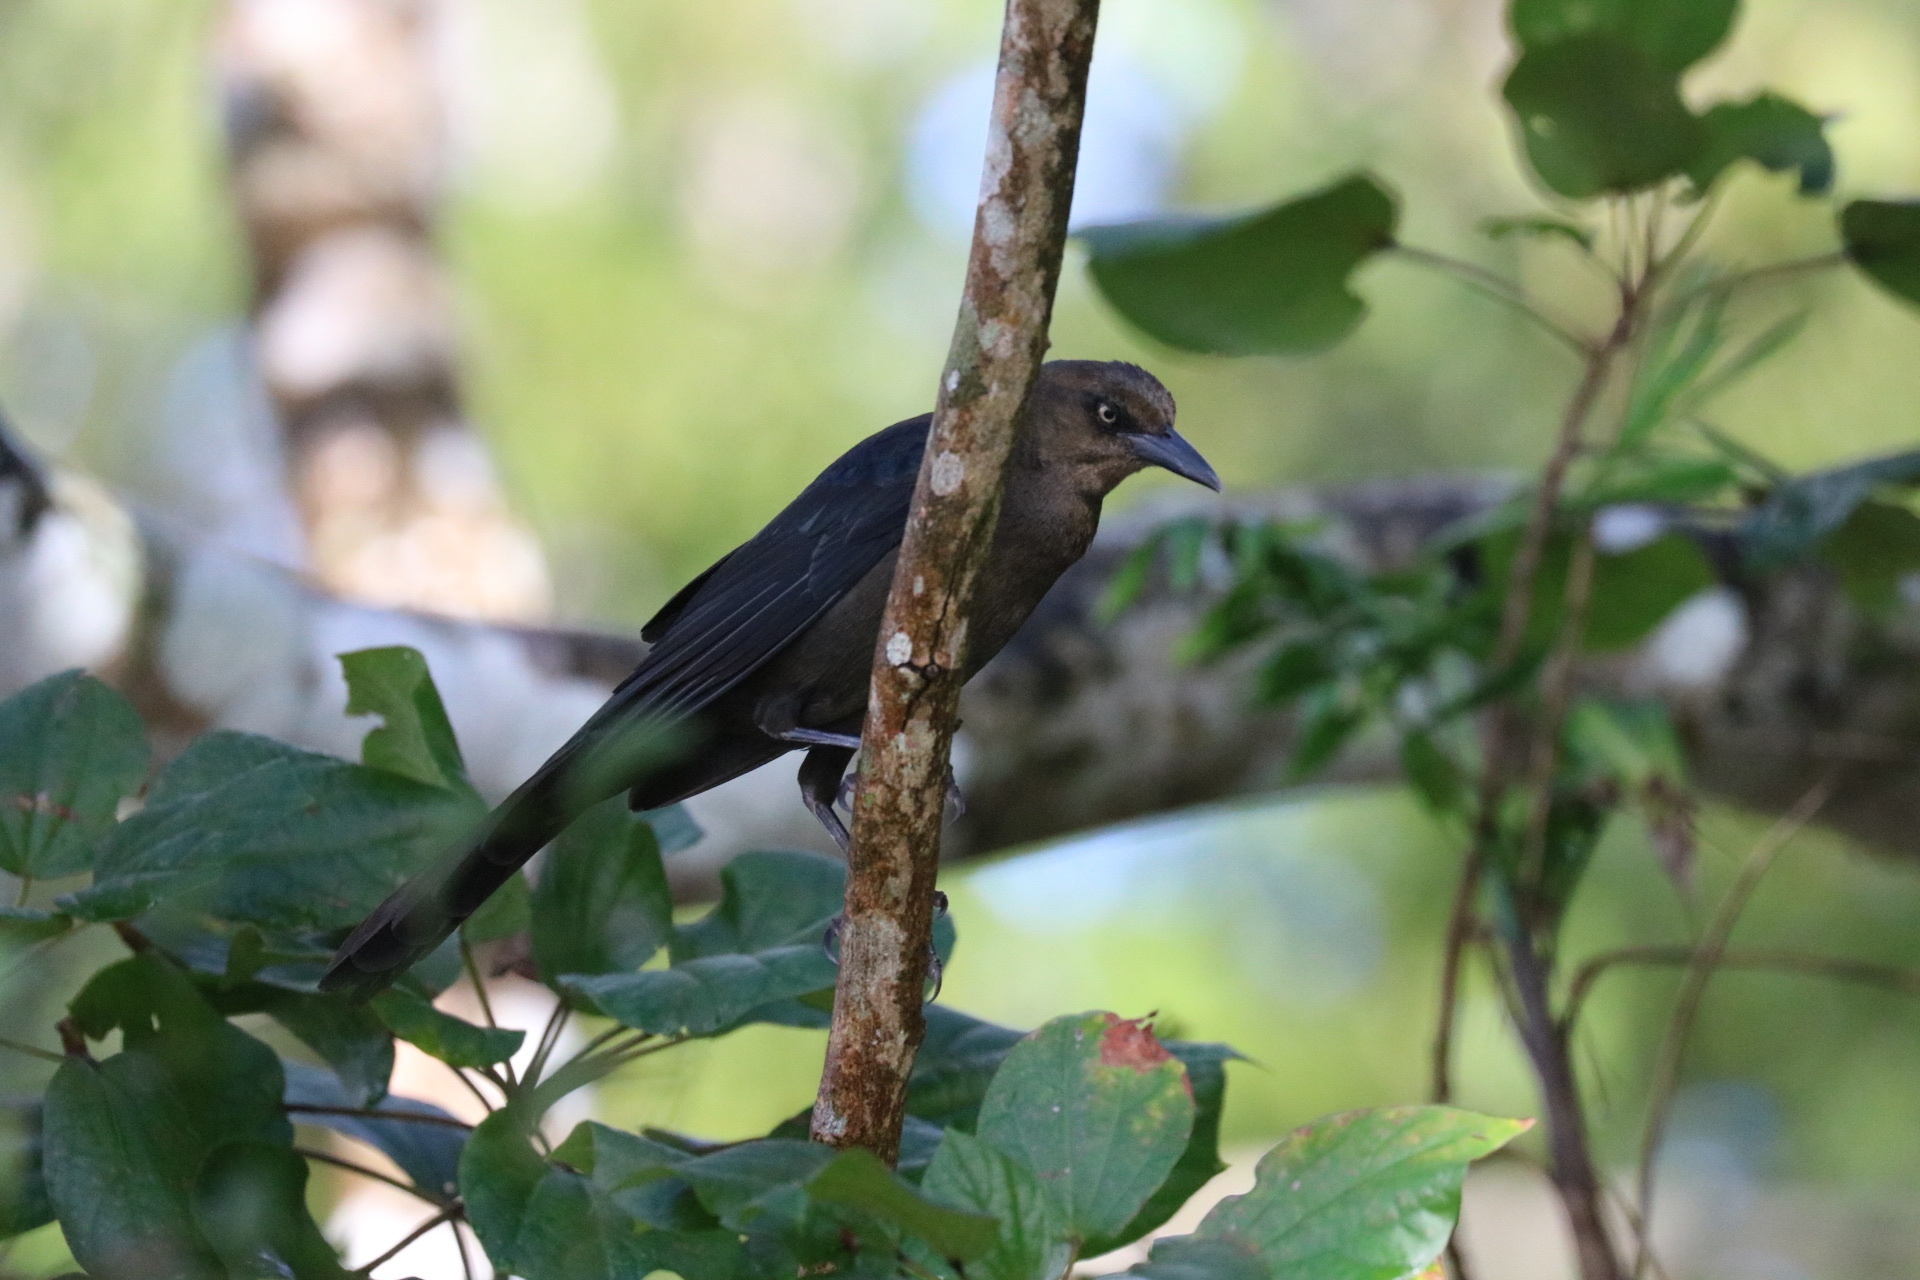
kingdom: Animalia
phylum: Chordata
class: Aves
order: Passeriformes
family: Icteridae
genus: Quiscalus
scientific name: Quiscalus mexicanus
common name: Great-tailed grackle
